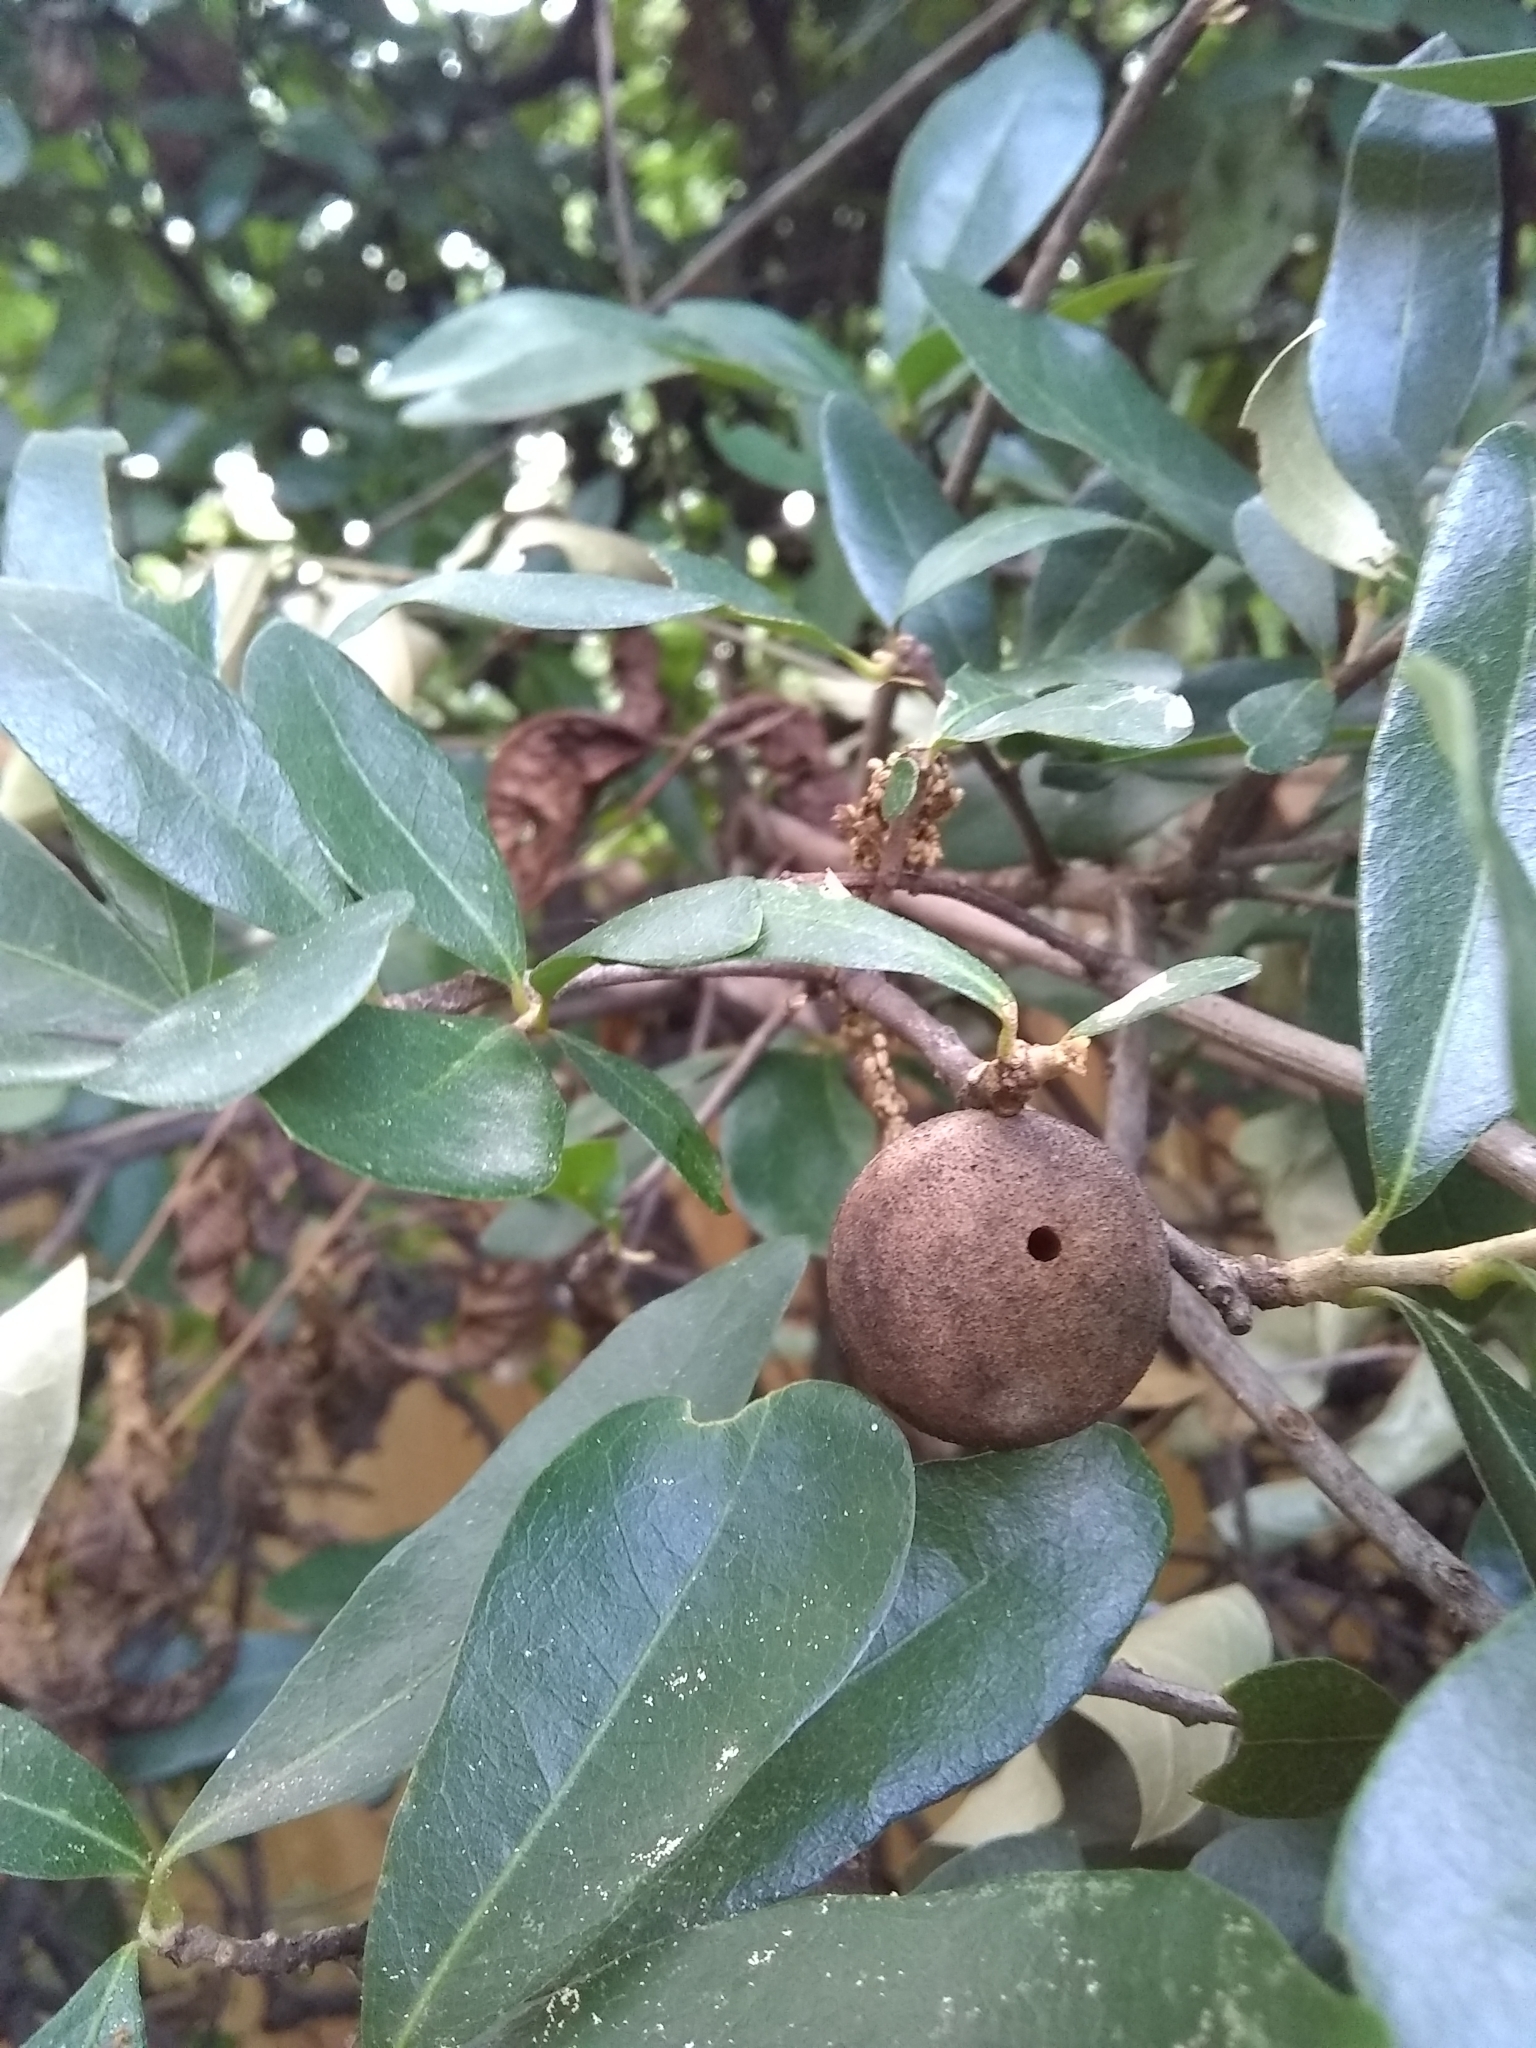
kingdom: Animalia
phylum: Arthropoda
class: Insecta
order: Hymenoptera
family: Cynipidae
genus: Disholcaspis
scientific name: Disholcaspis
